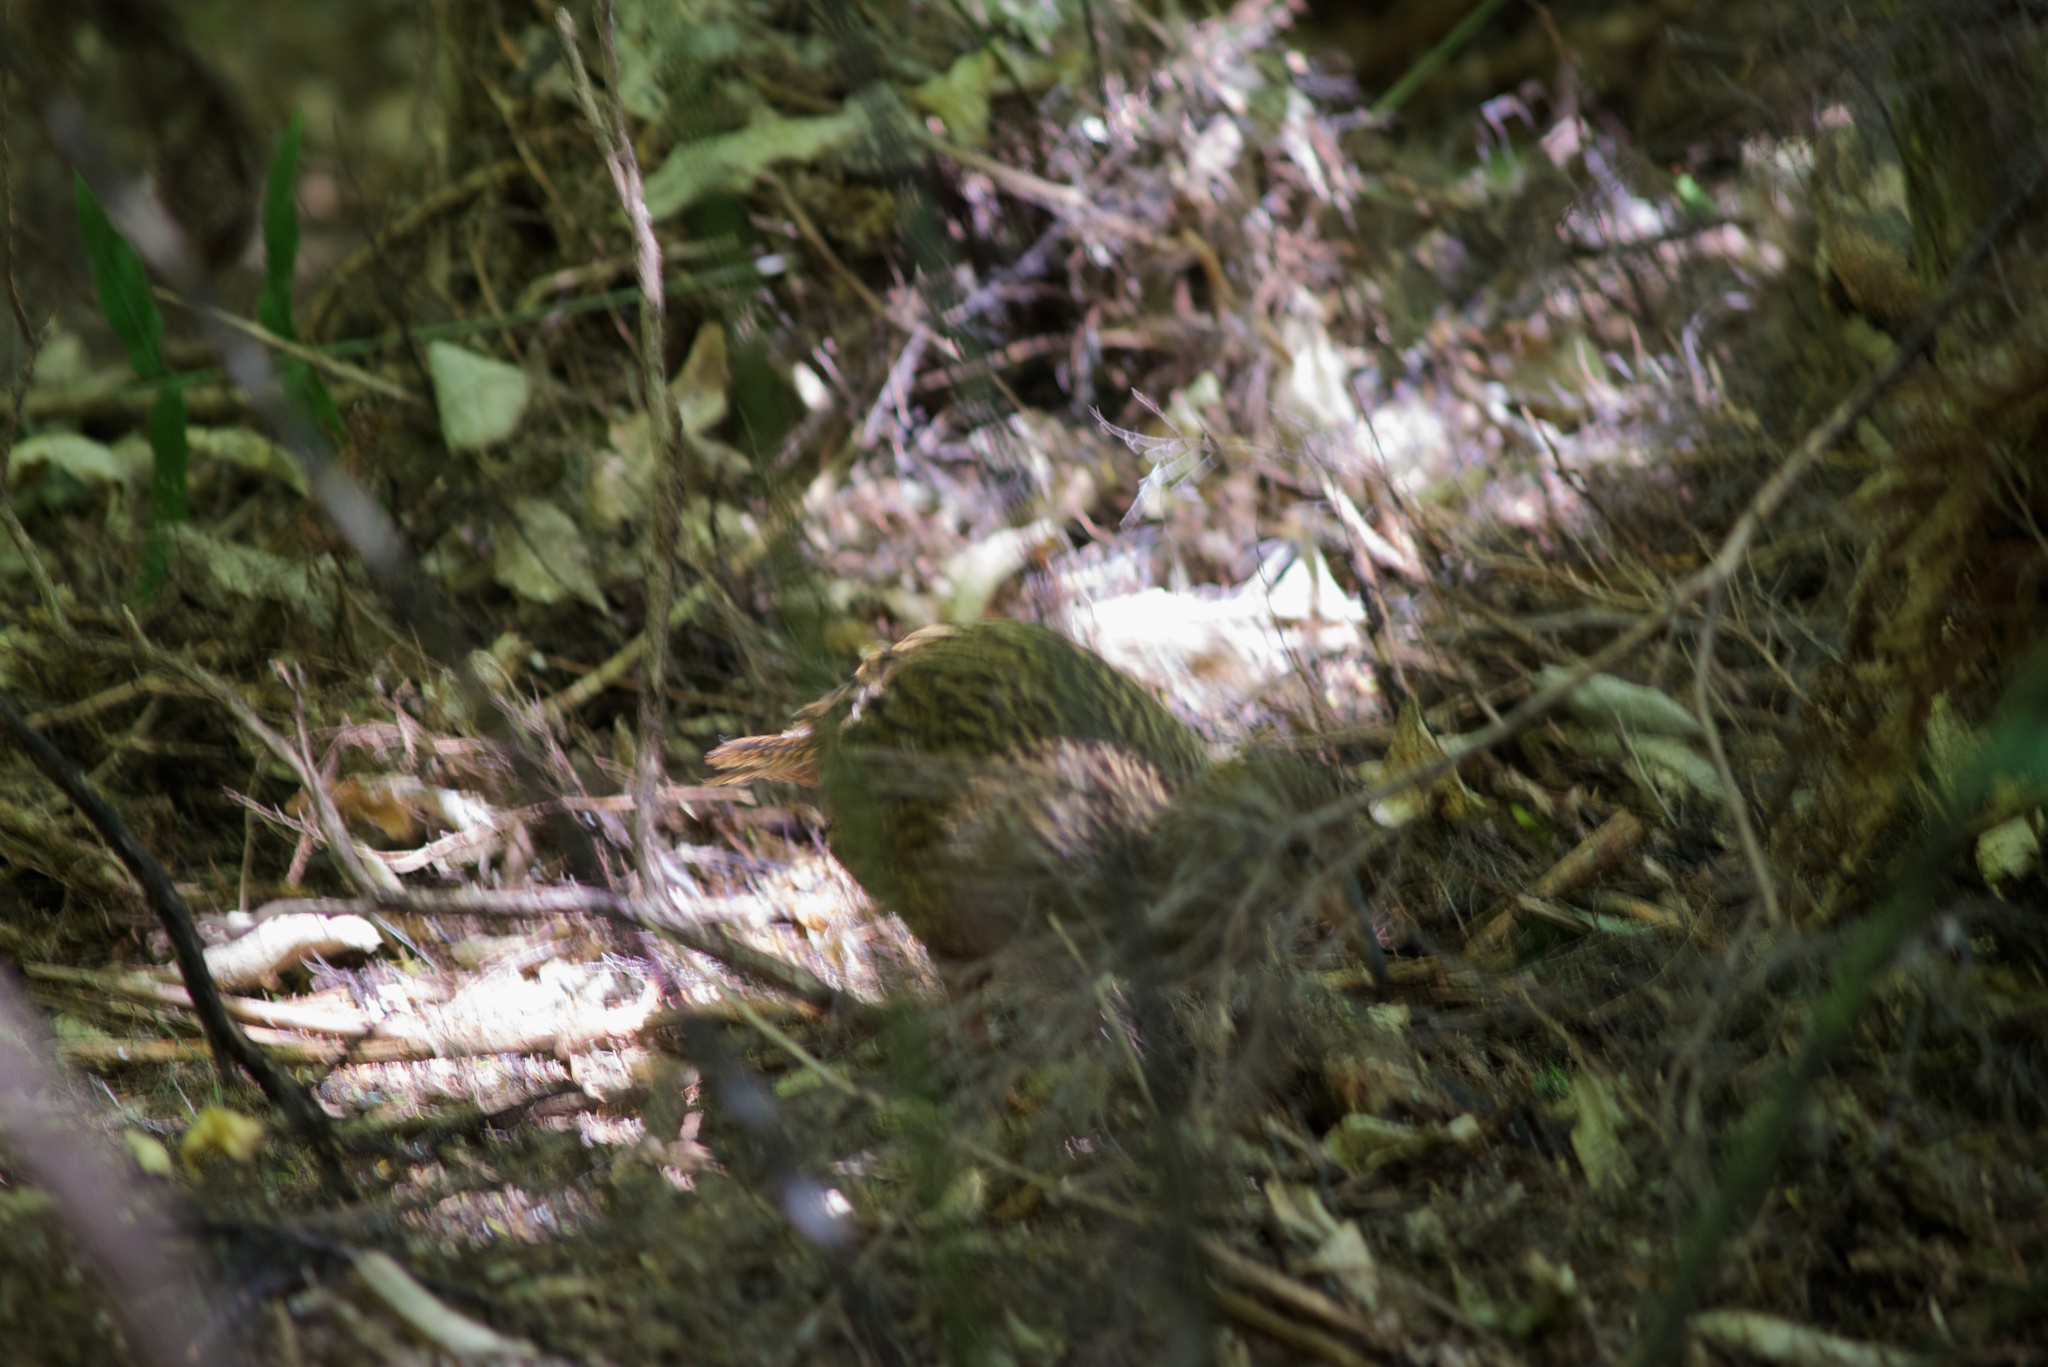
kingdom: Animalia
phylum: Chordata
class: Aves
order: Gruiformes
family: Rallidae
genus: Gallirallus
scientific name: Gallirallus australis
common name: Weka
